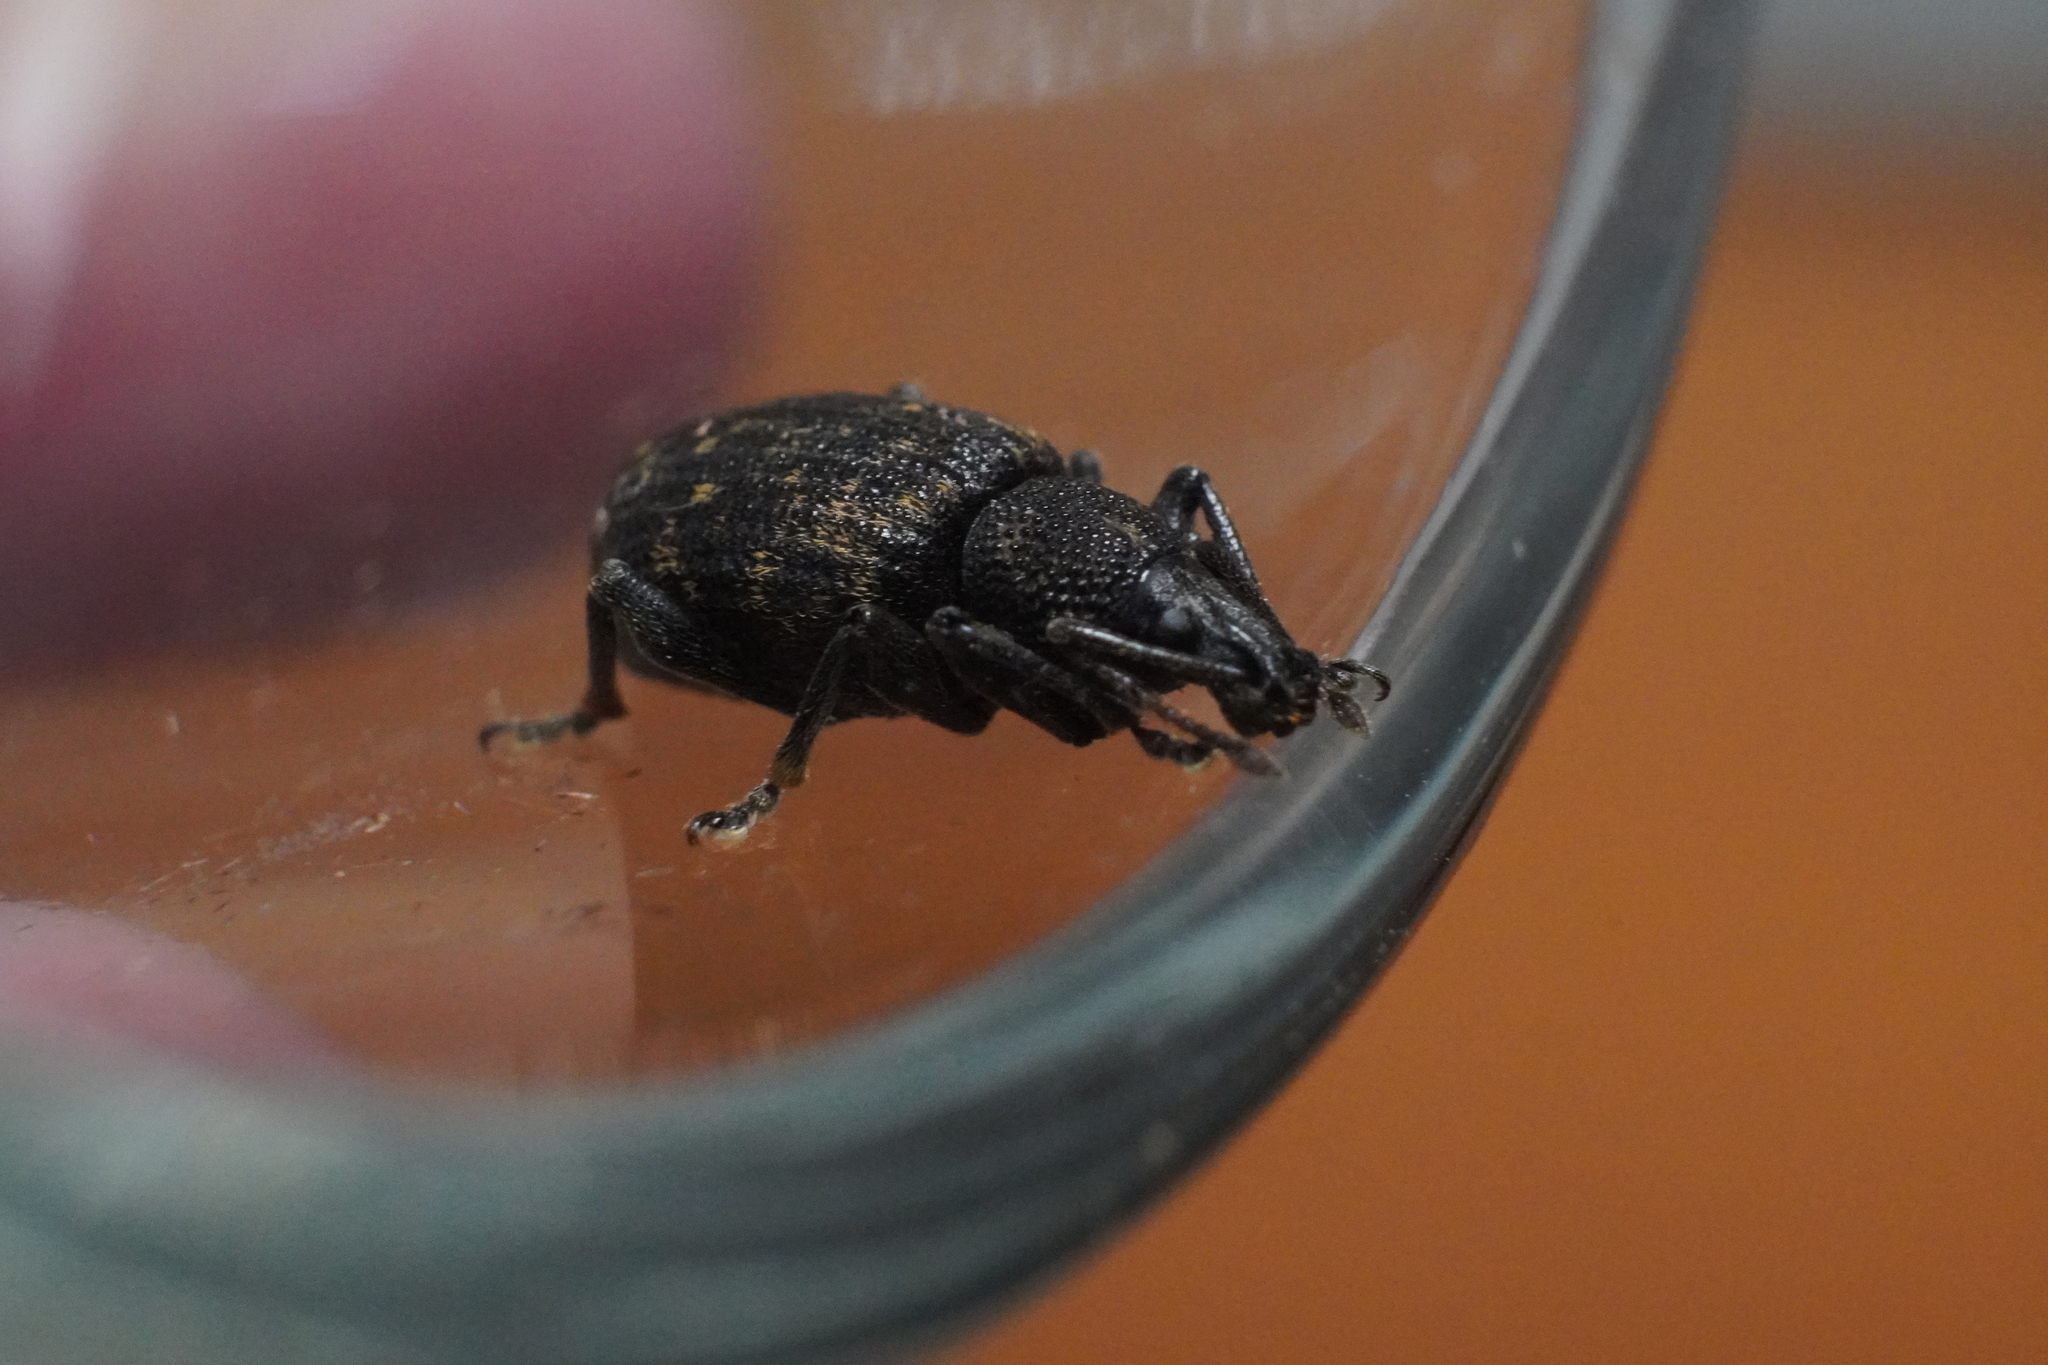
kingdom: Animalia
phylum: Arthropoda
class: Insecta
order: Coleoptera
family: Curculionidae
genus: Otiorhynchus
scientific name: Otiorhynchus sulcatus
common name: Black vine weevil
